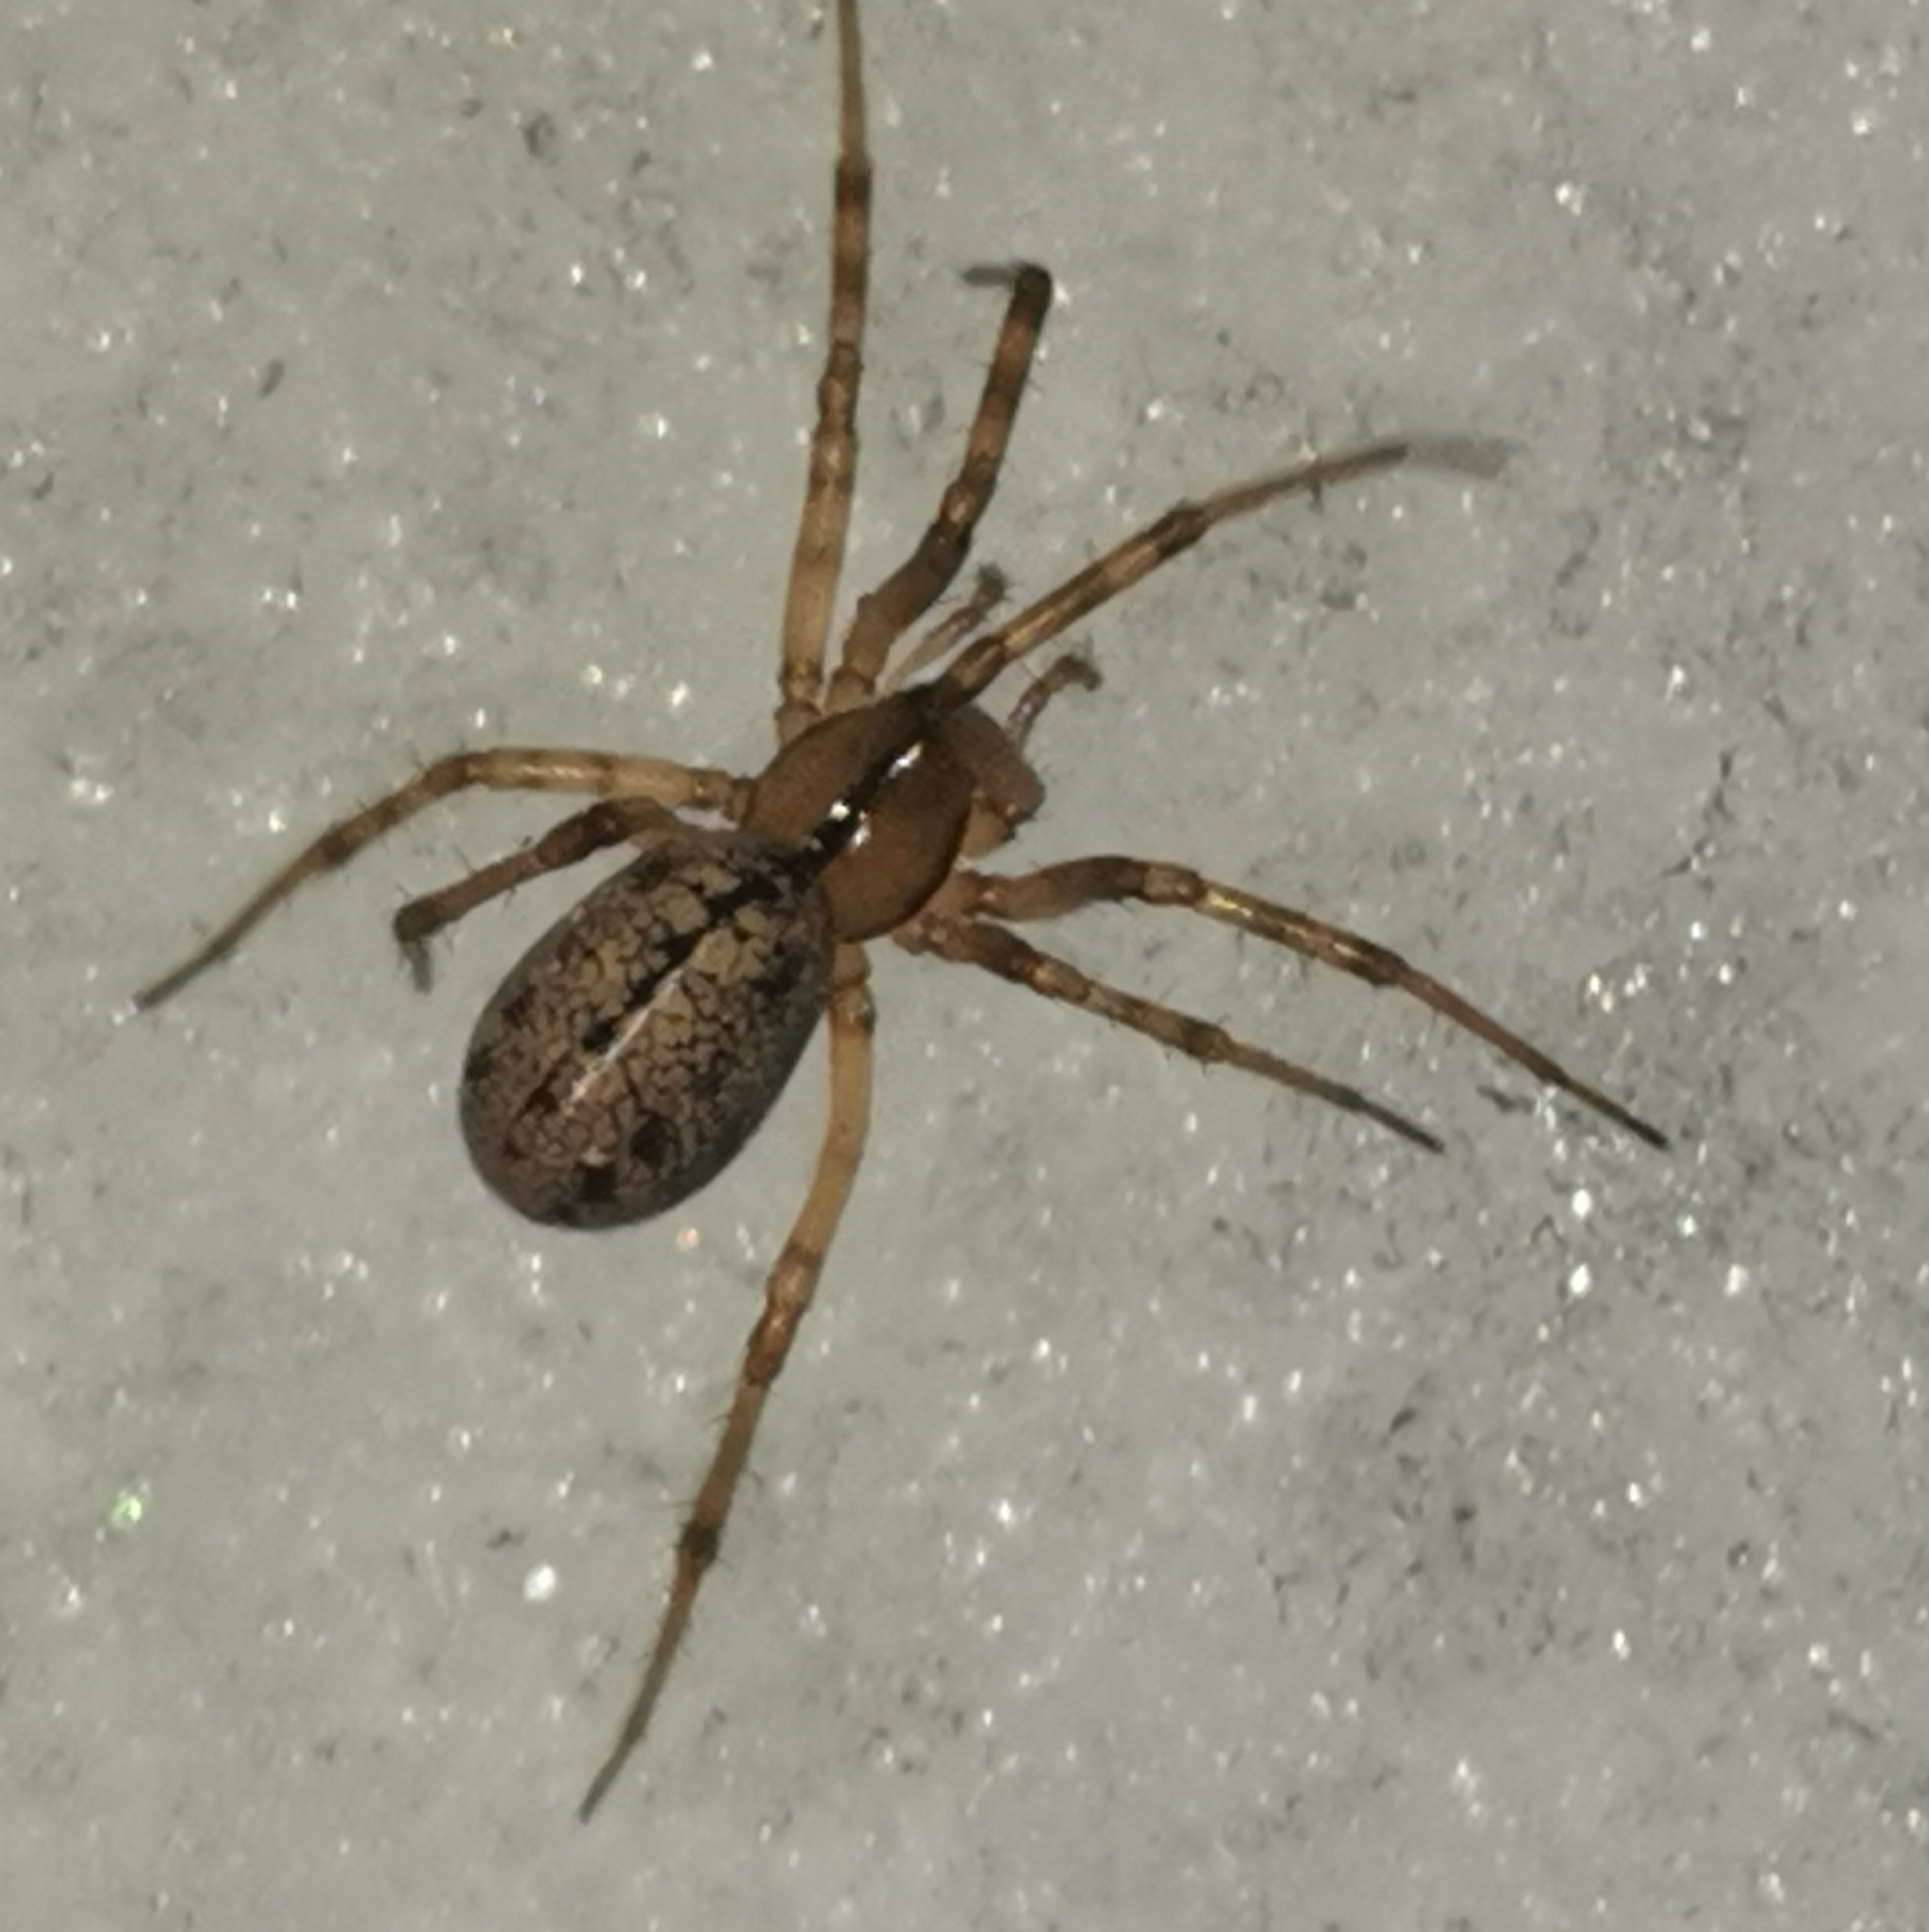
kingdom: Animalia
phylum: Arthropoda
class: Arachnida
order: Araneae
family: Linyphiidae
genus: Stemonyphantes
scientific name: Stemonyphantes lineatus
